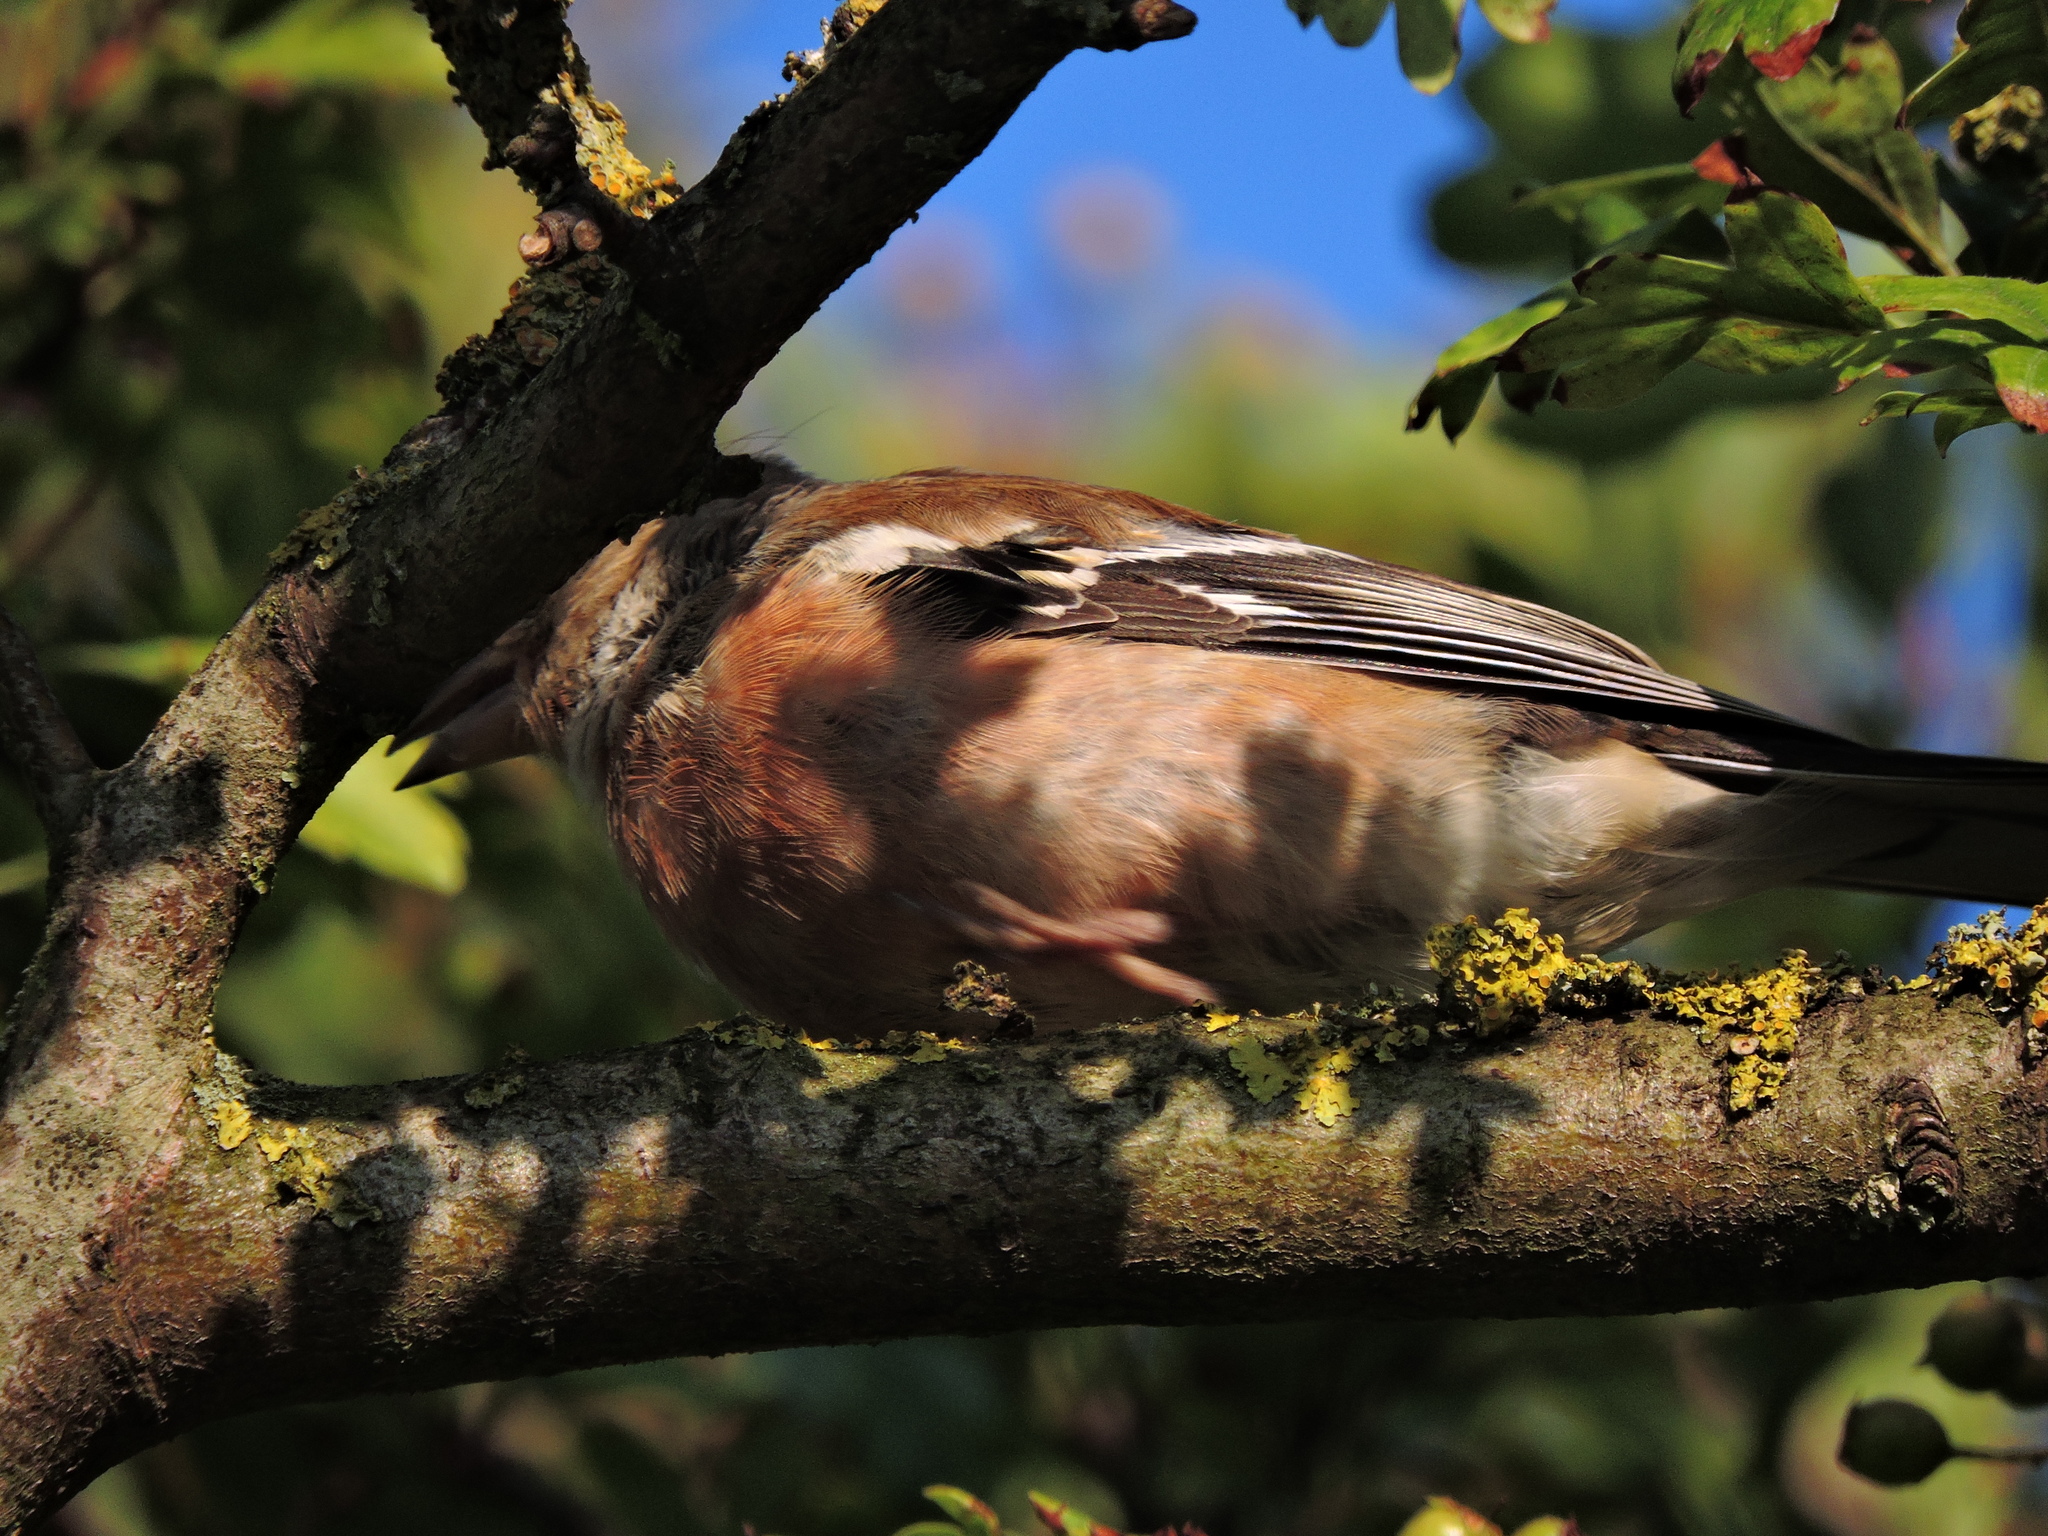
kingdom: Animalia
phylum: Chordata
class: Aves
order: Passeriformes
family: Fringillidae
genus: Fringilla
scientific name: Fringilla coelebs
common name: Common chaffinch
